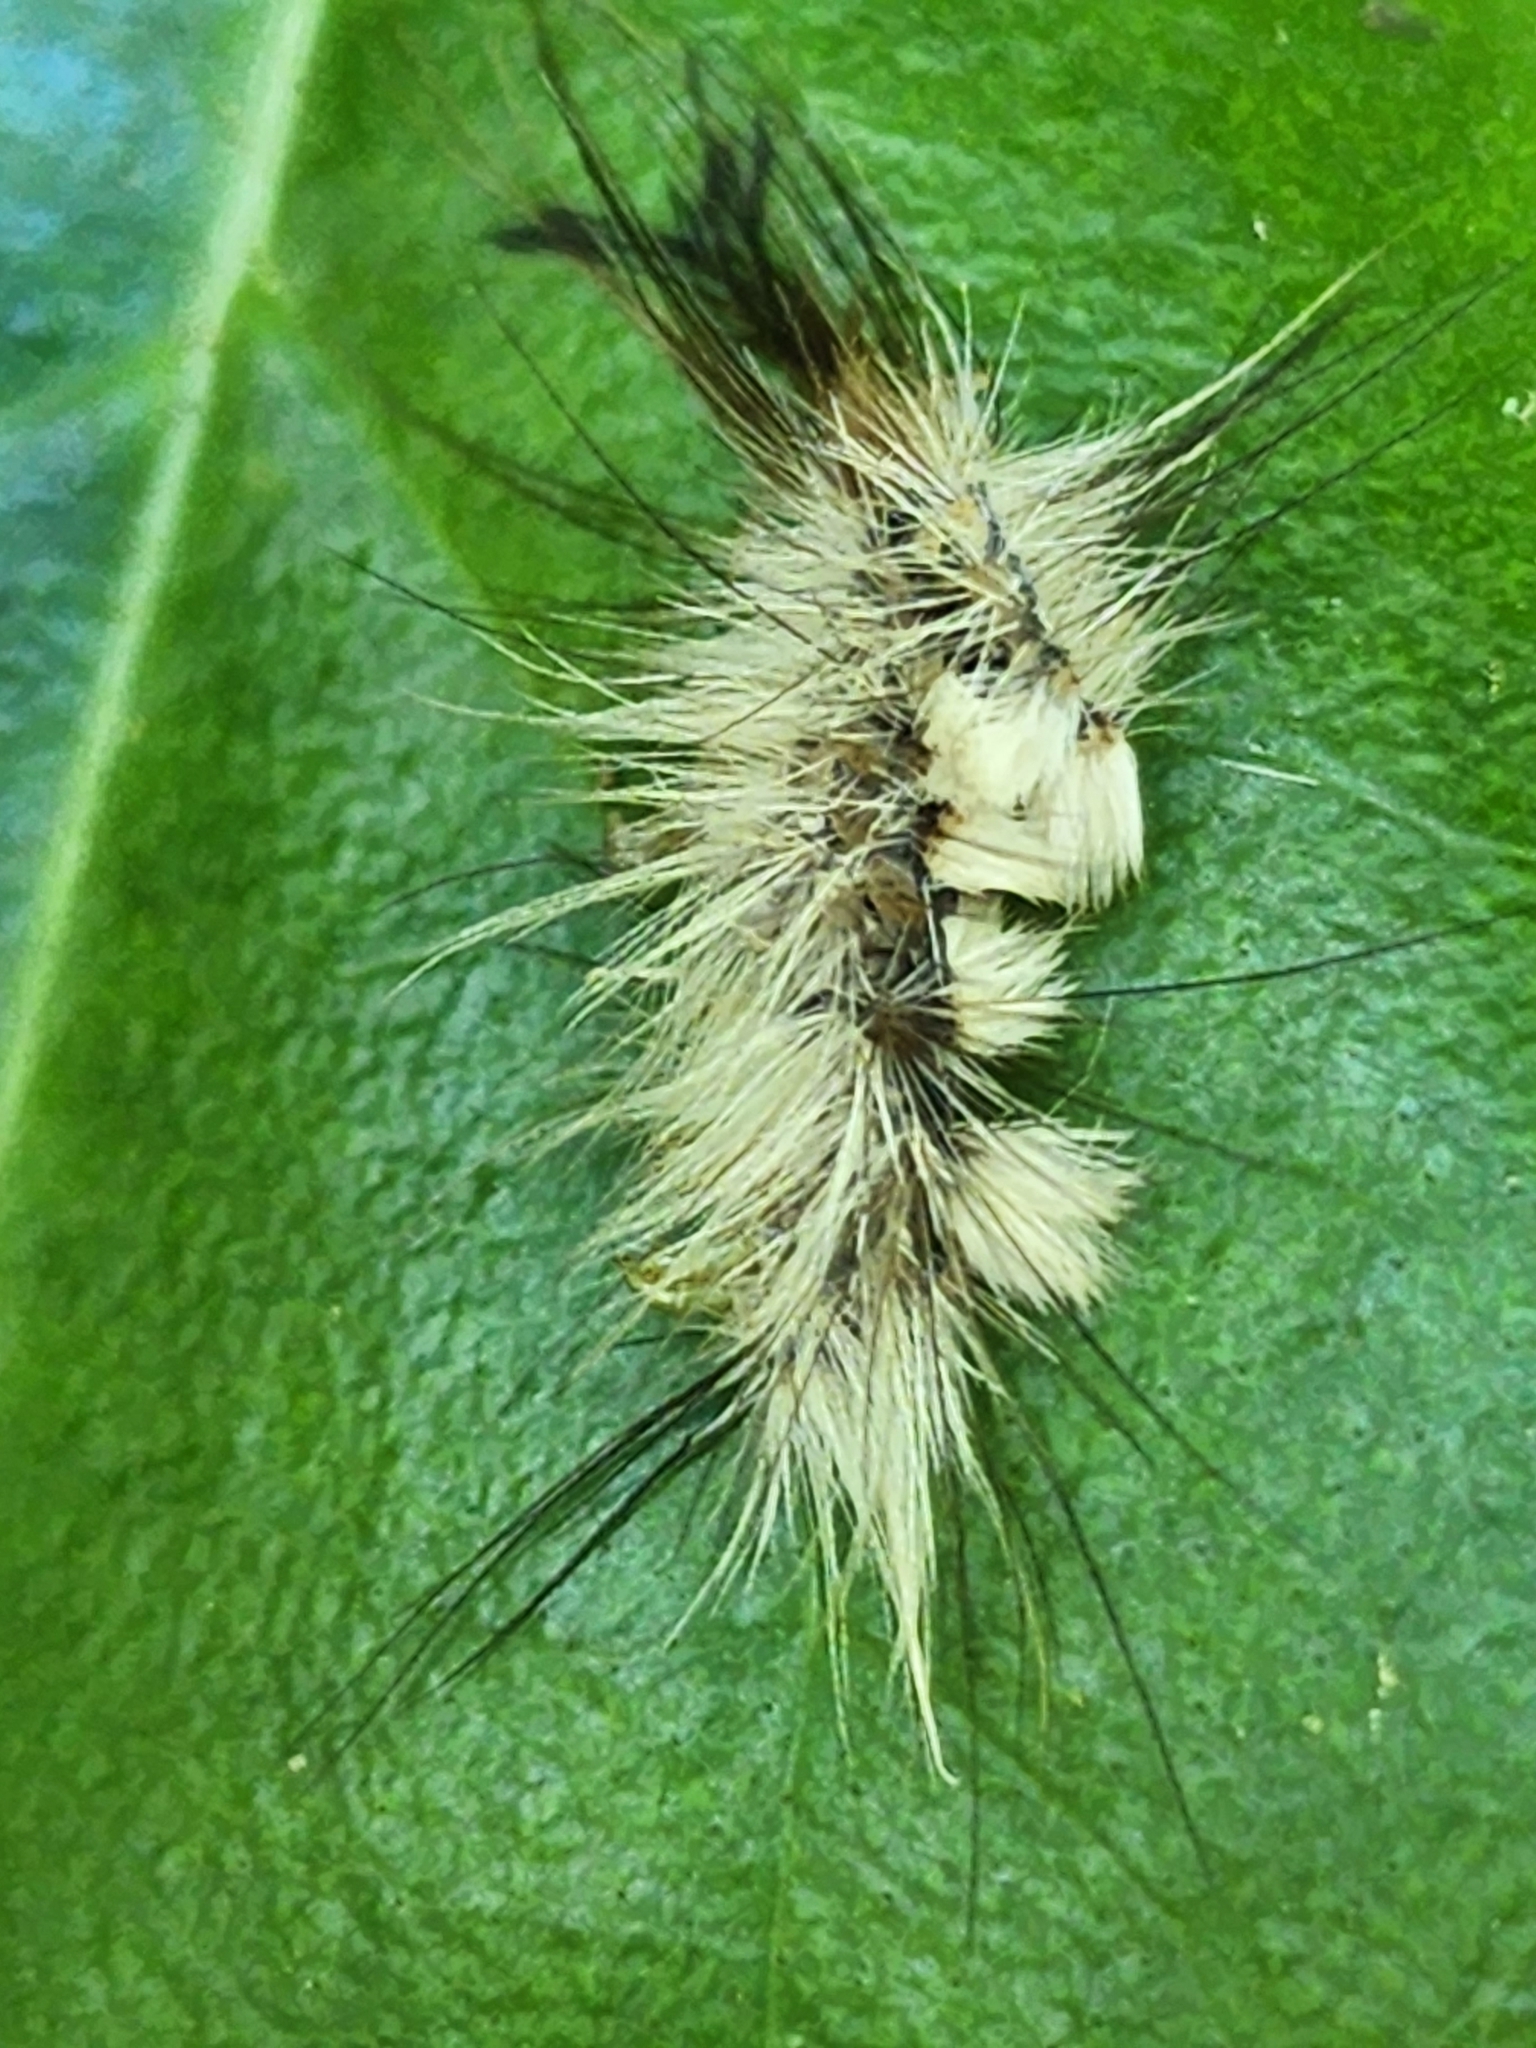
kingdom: Animalia
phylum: Arthropoda
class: Insecta
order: Lepidoptera
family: Erebidae
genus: Dasychira
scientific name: Dasychira meridionalis
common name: Southern tussock moth
